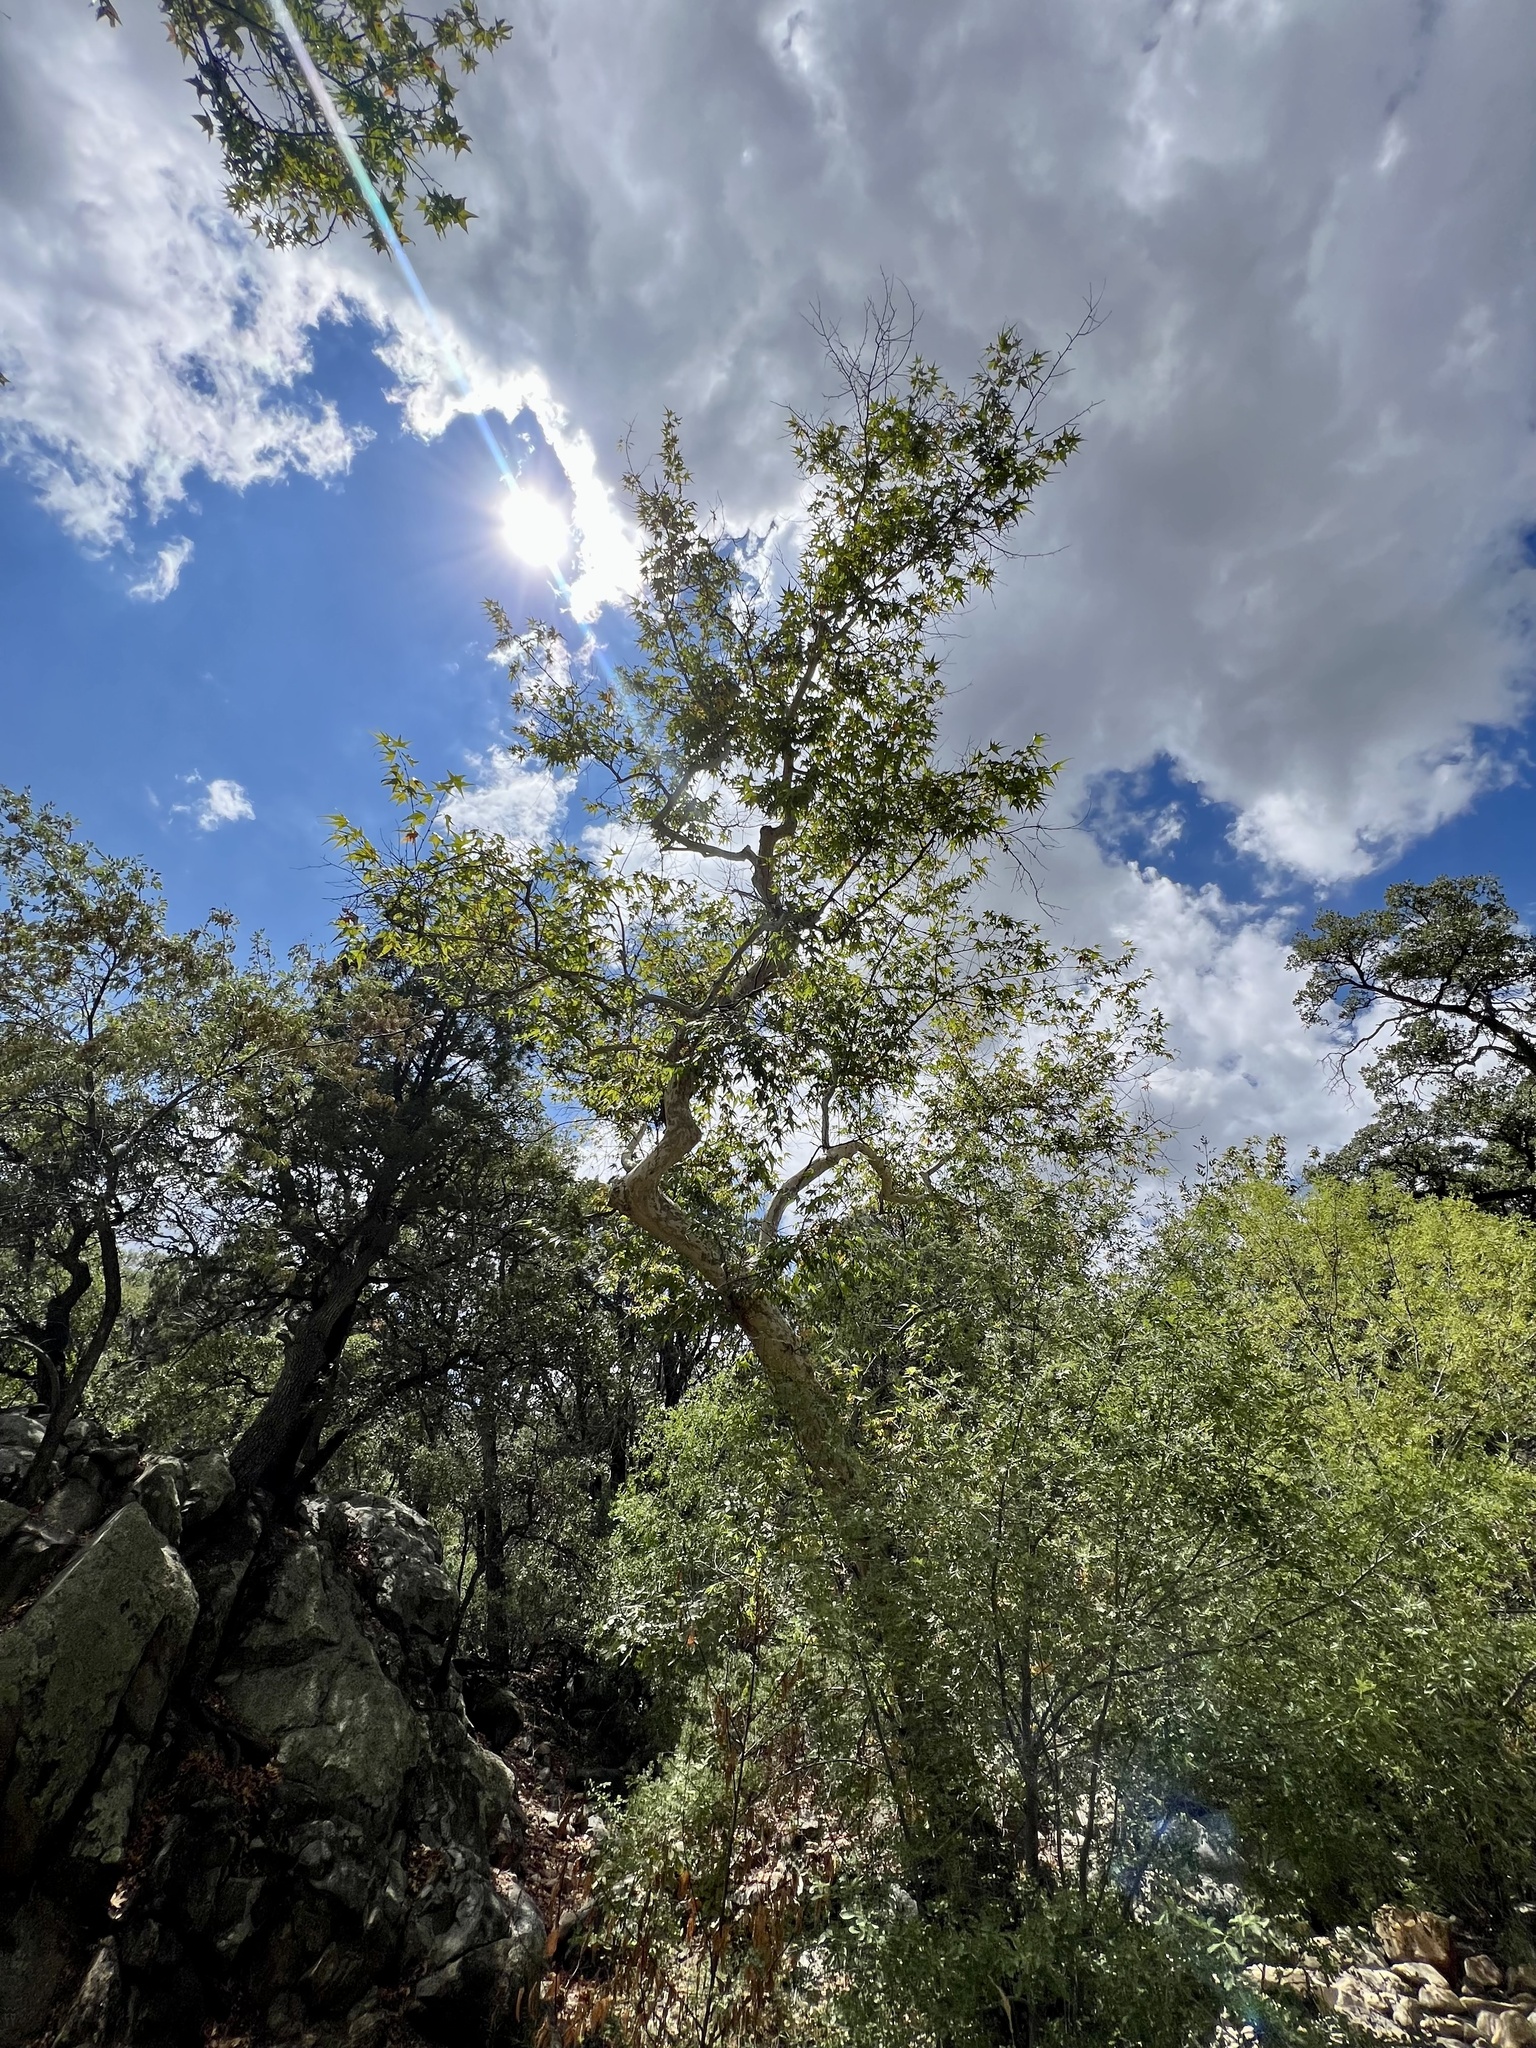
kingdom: Plantae
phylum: Tracheophyta
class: Magnoliopsida
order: Proteales
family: Platanaceae
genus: Platanus
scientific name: Platanus wrightii
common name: Arizona sycamore
